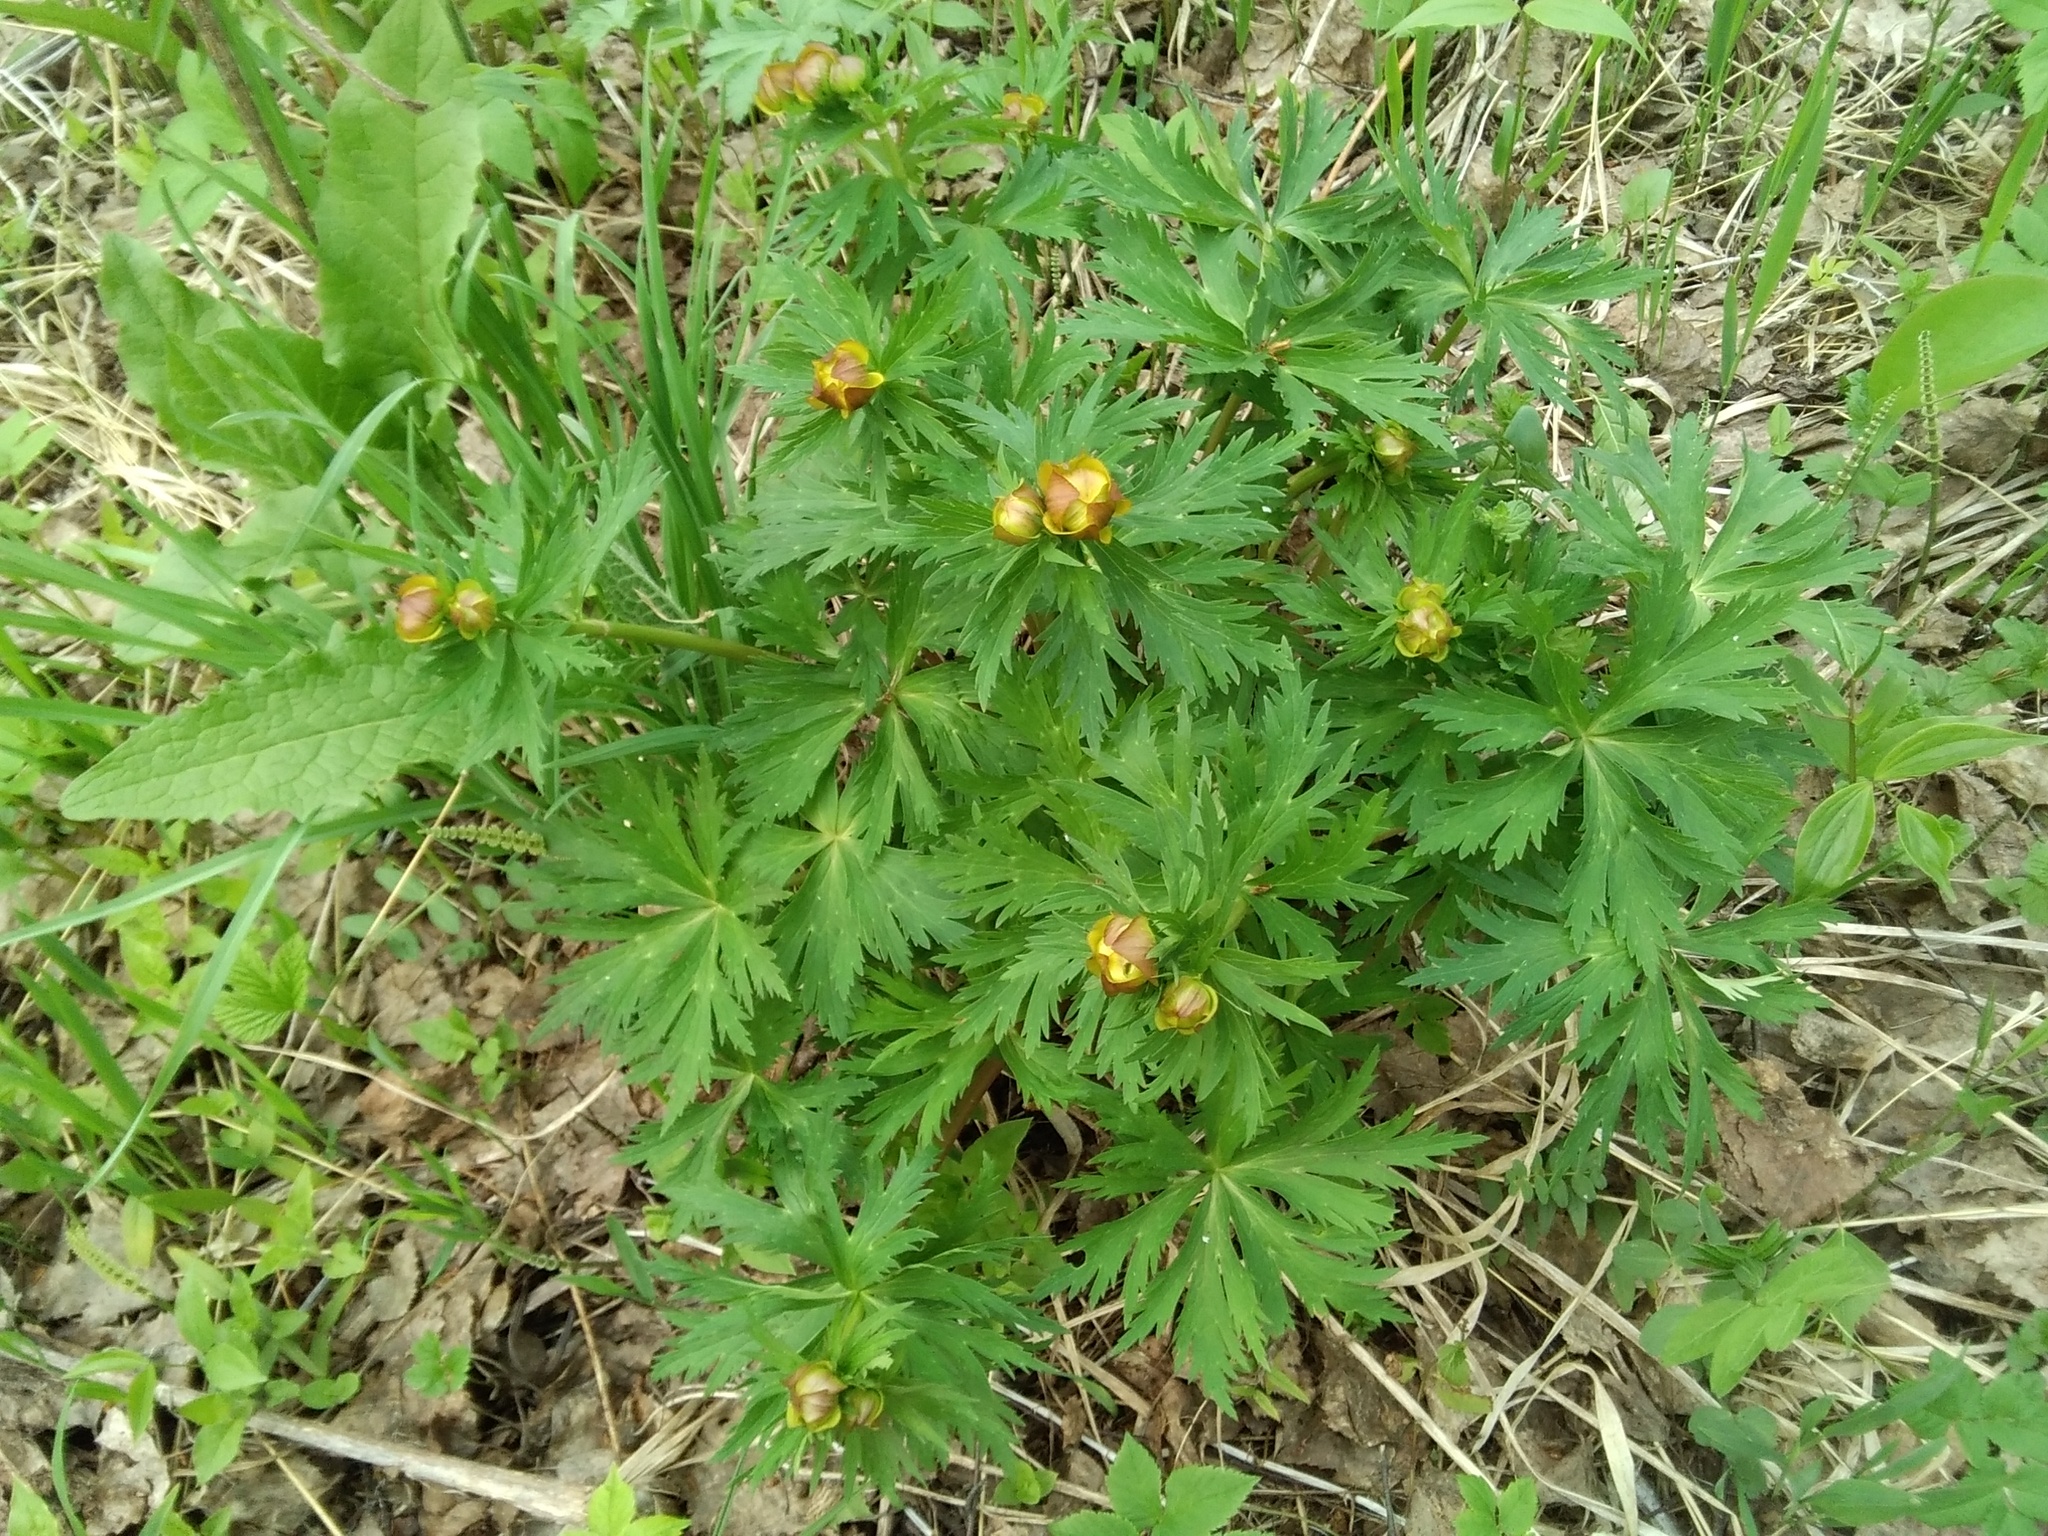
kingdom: Plantae
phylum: Tracheophyta
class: Magnoliopsida
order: Ranunculales
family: Ranunculaceae
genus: Trollius
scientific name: Trollius asiaticus
